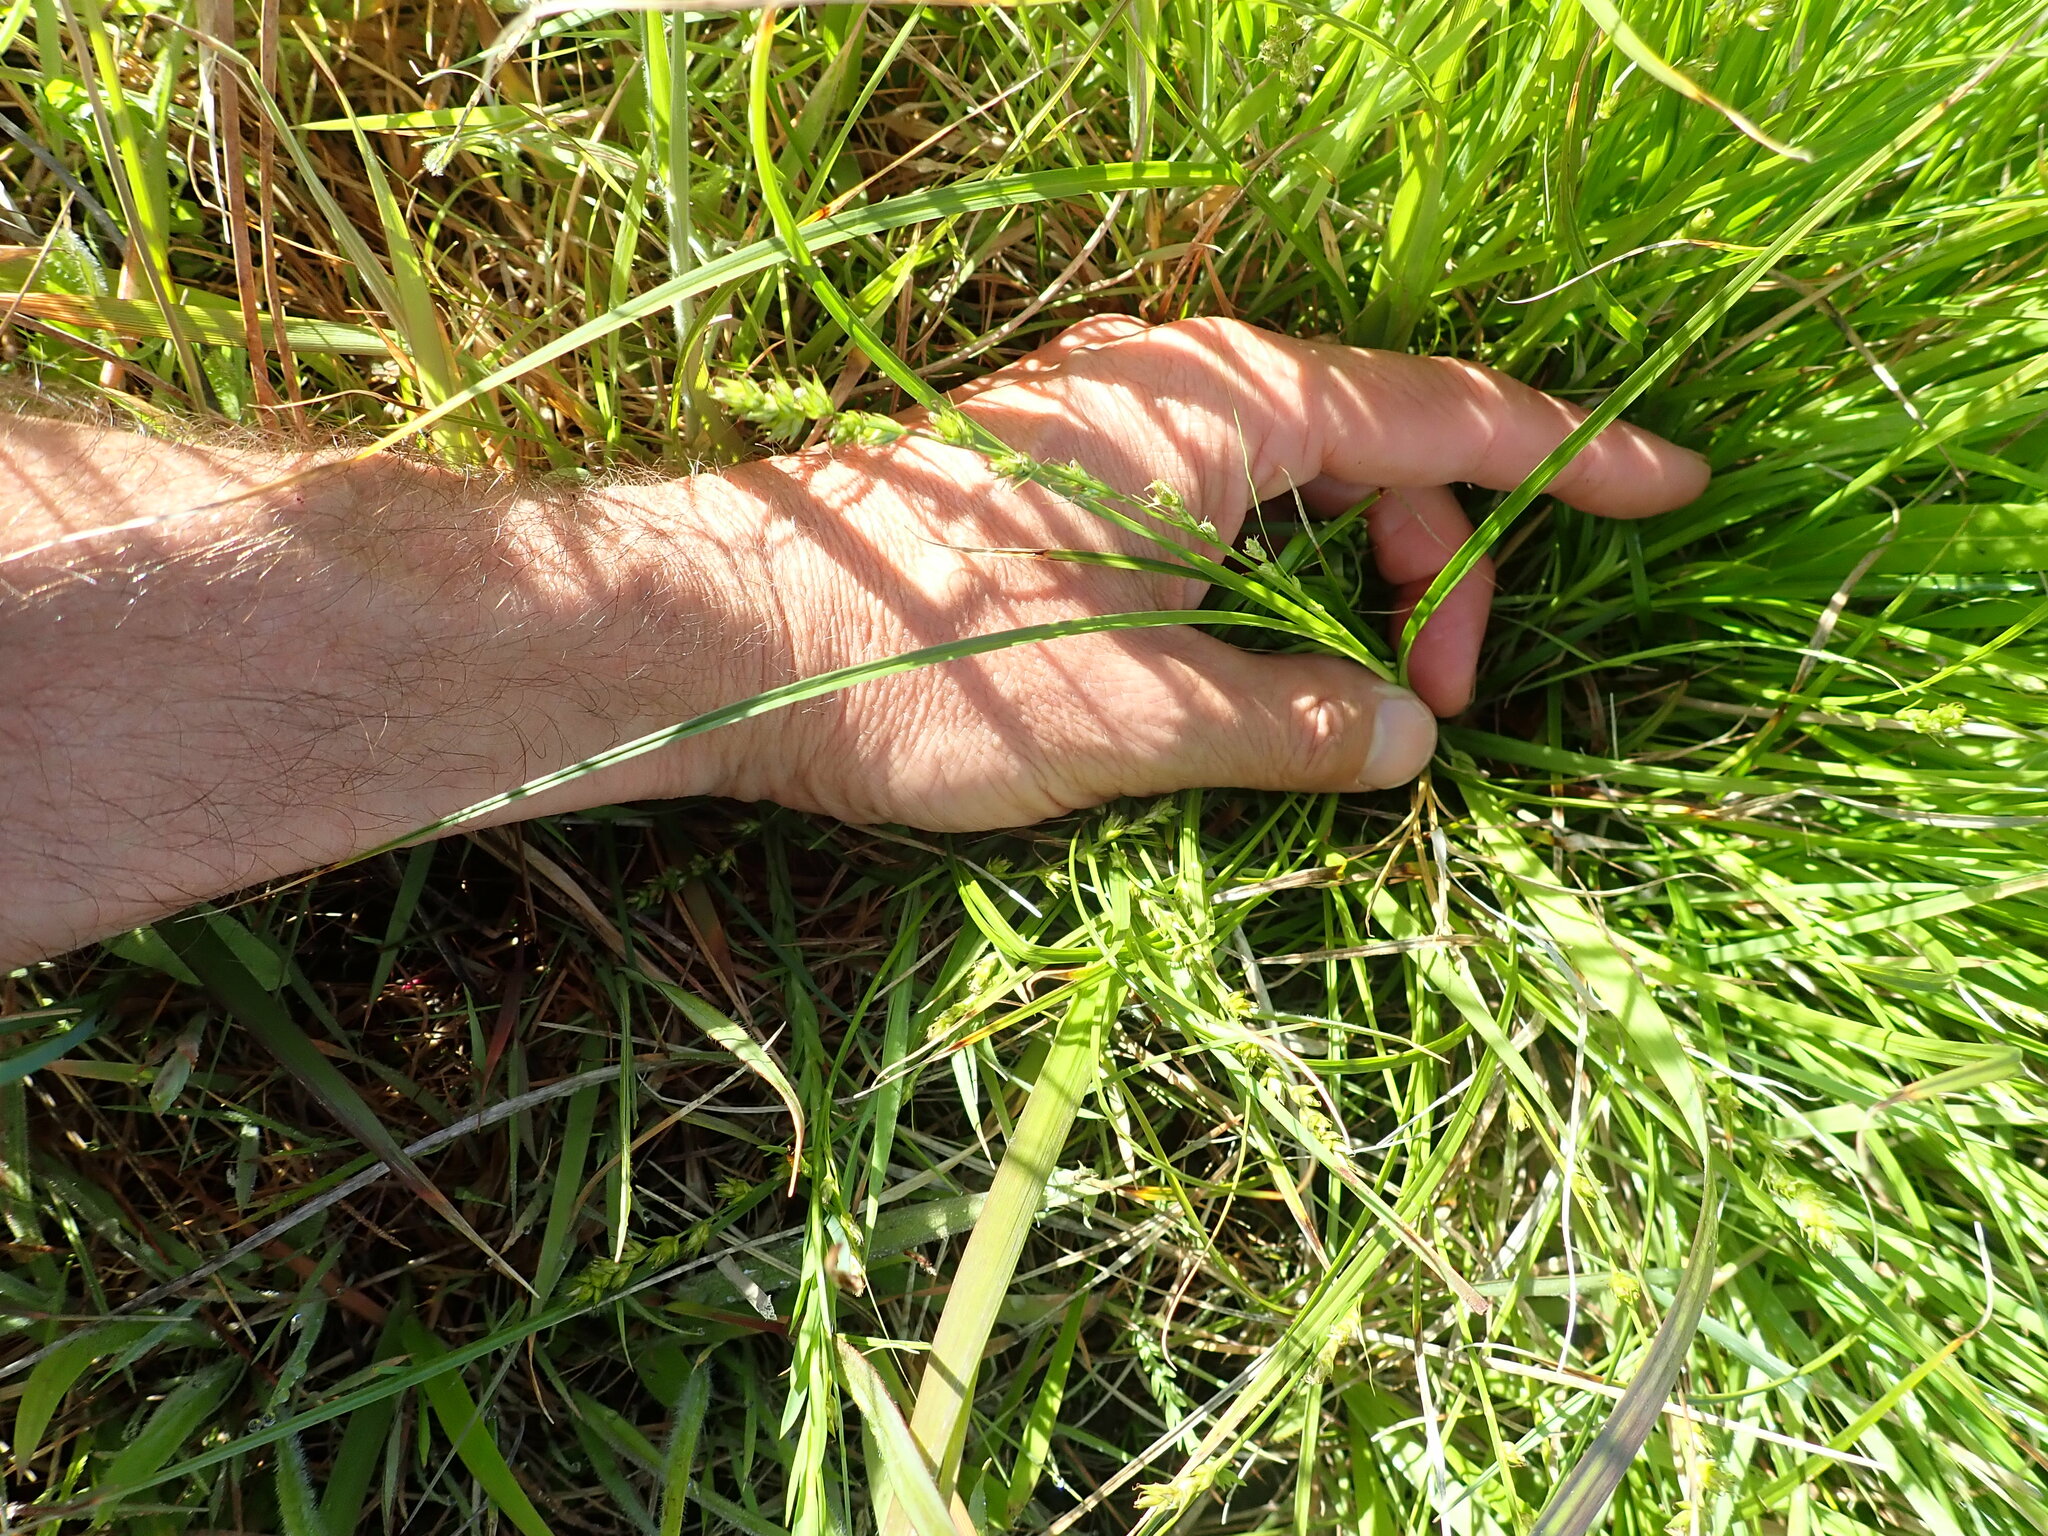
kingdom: Plantae
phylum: Tracheophyta
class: Liliopsida
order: Poales
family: Cyperaceae
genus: Carex
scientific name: Carex divulsa
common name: Grassland sedge
